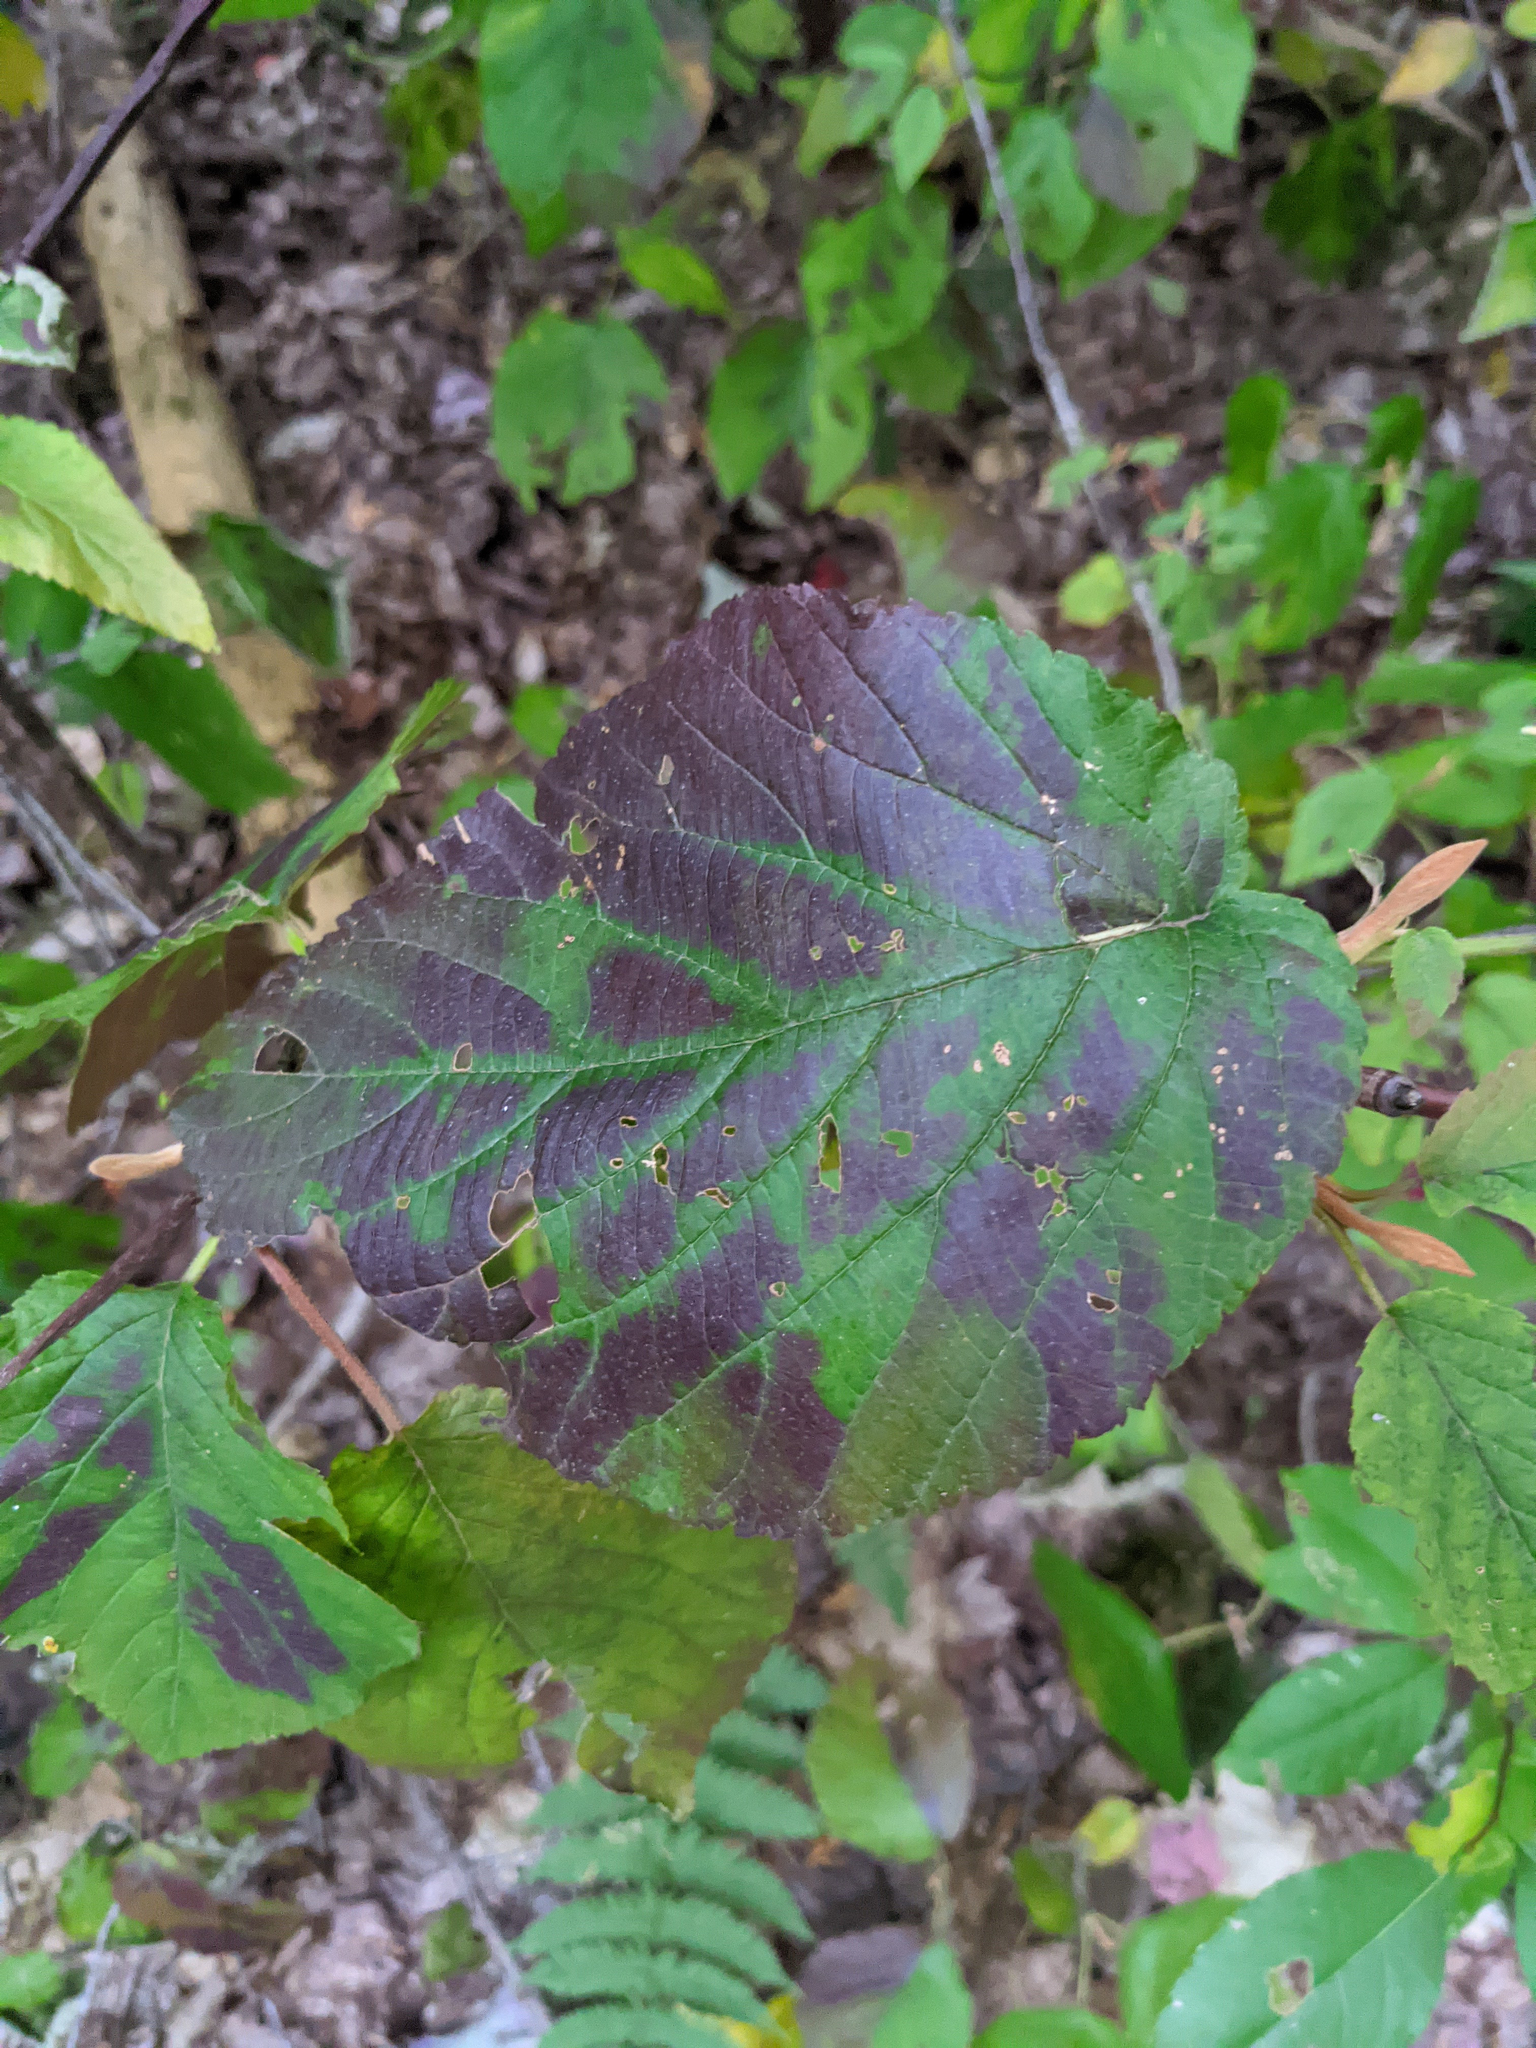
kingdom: Plantae
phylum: Tracheophyta
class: Magnoliopsida
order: Dipsacales
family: Viburnaceae
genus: Viburnum
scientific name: Viburnum lantanoides
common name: Hobblebush
